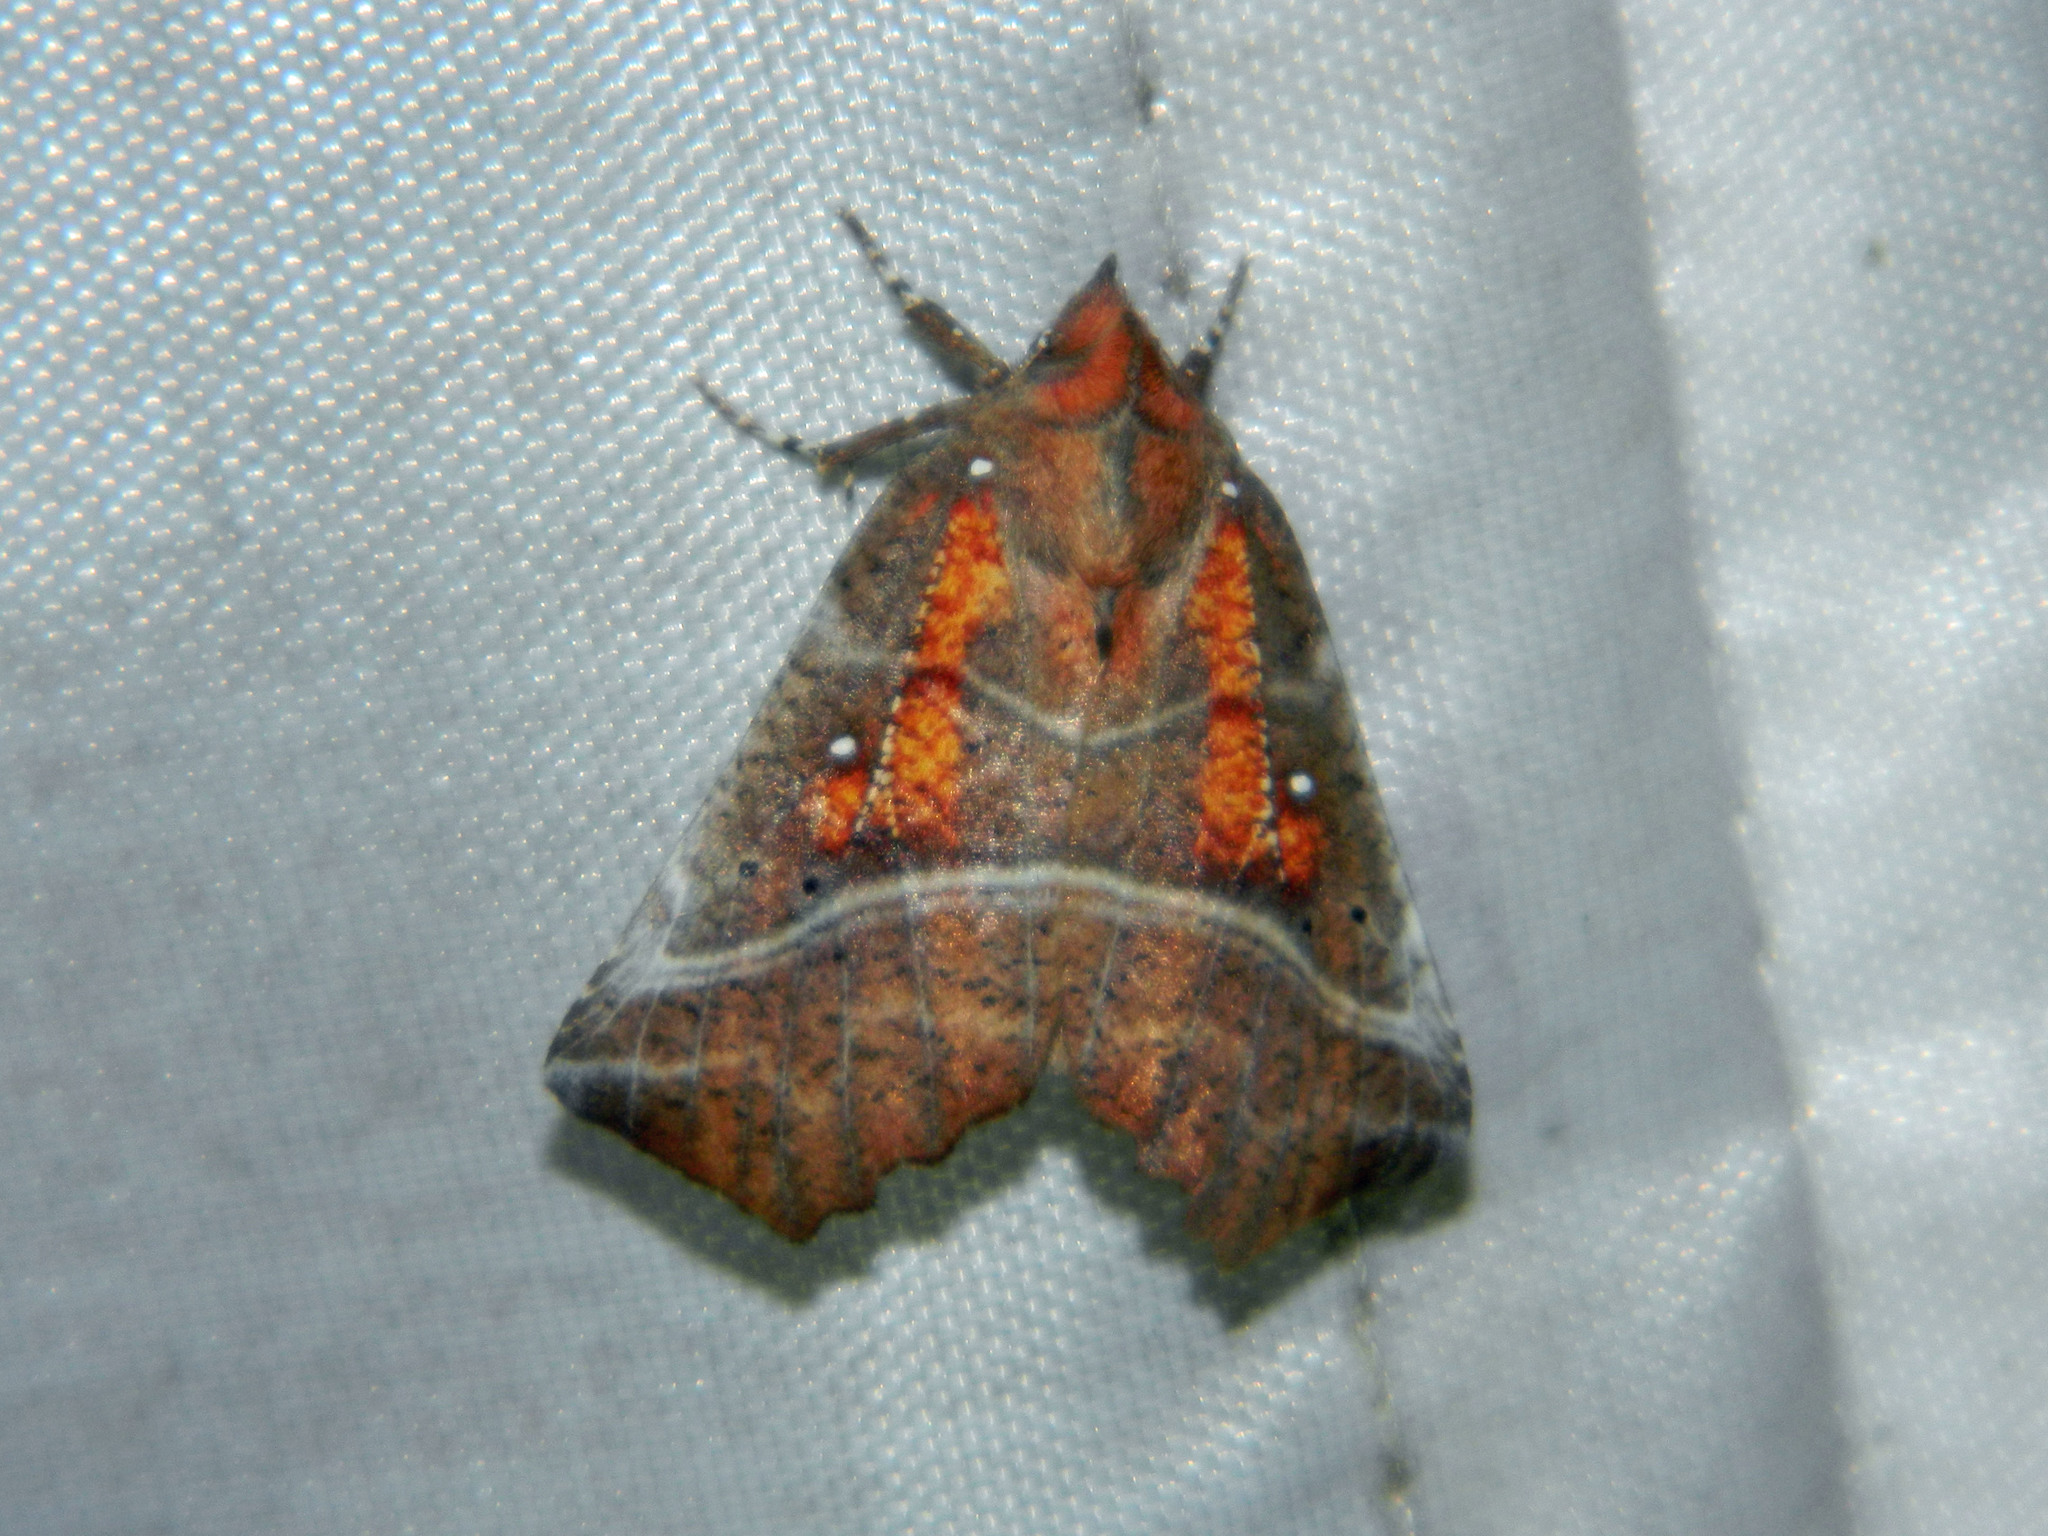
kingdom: Animalia
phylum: Arthropoda
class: Insecta
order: Lepidoptera
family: Erebidae
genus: Scoliopteryx
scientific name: Scoliopteryx libatrix
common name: Herald
